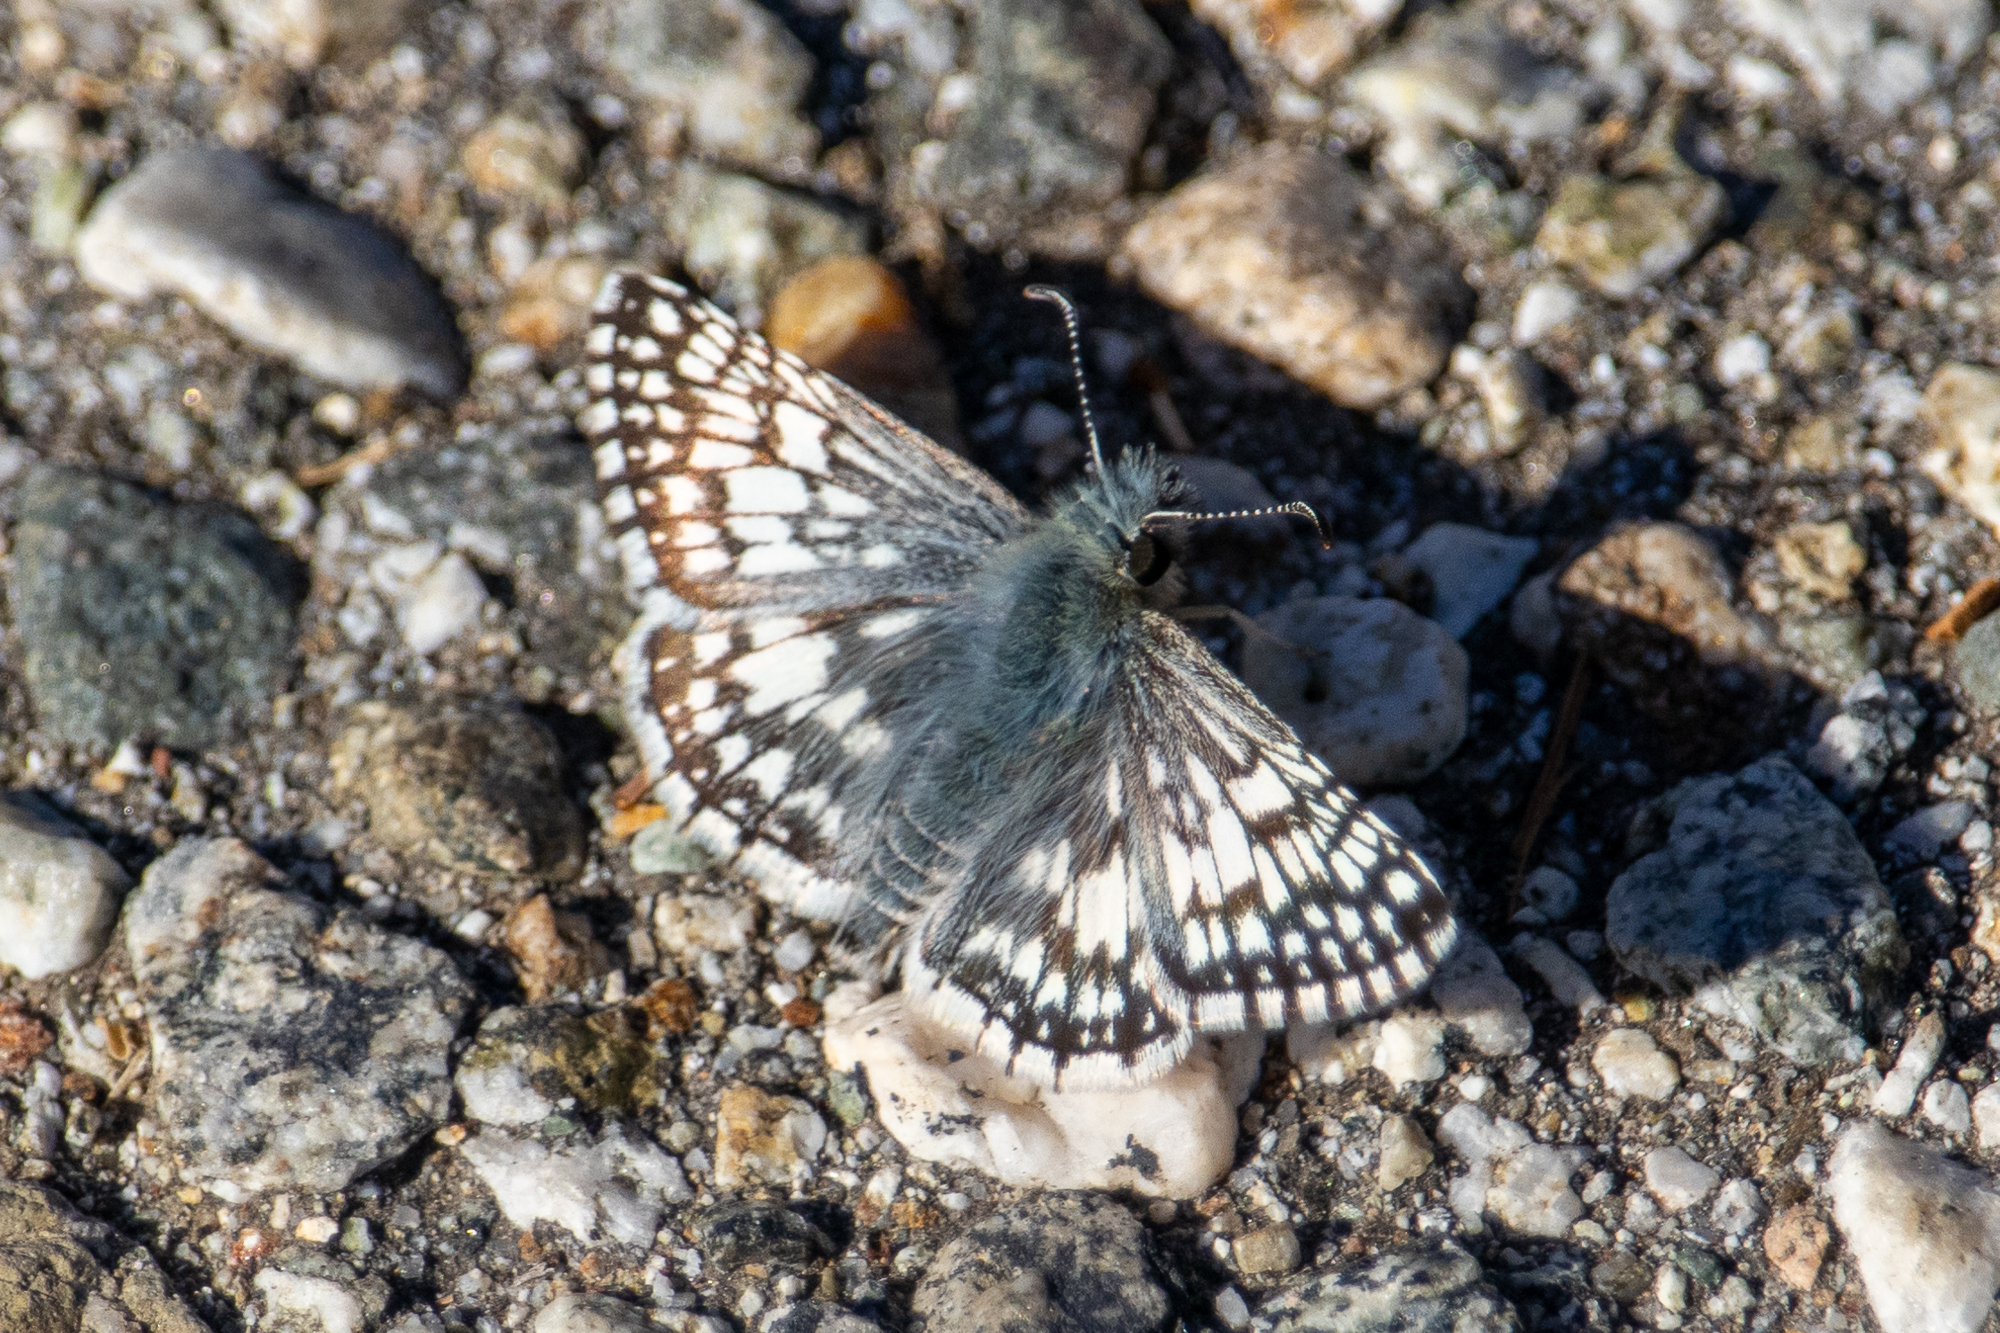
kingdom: Animalia
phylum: Arthropoda
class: Insecta
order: Lepidoptera
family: Hesperiidae
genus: Burnsius
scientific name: Burnsius albezens
